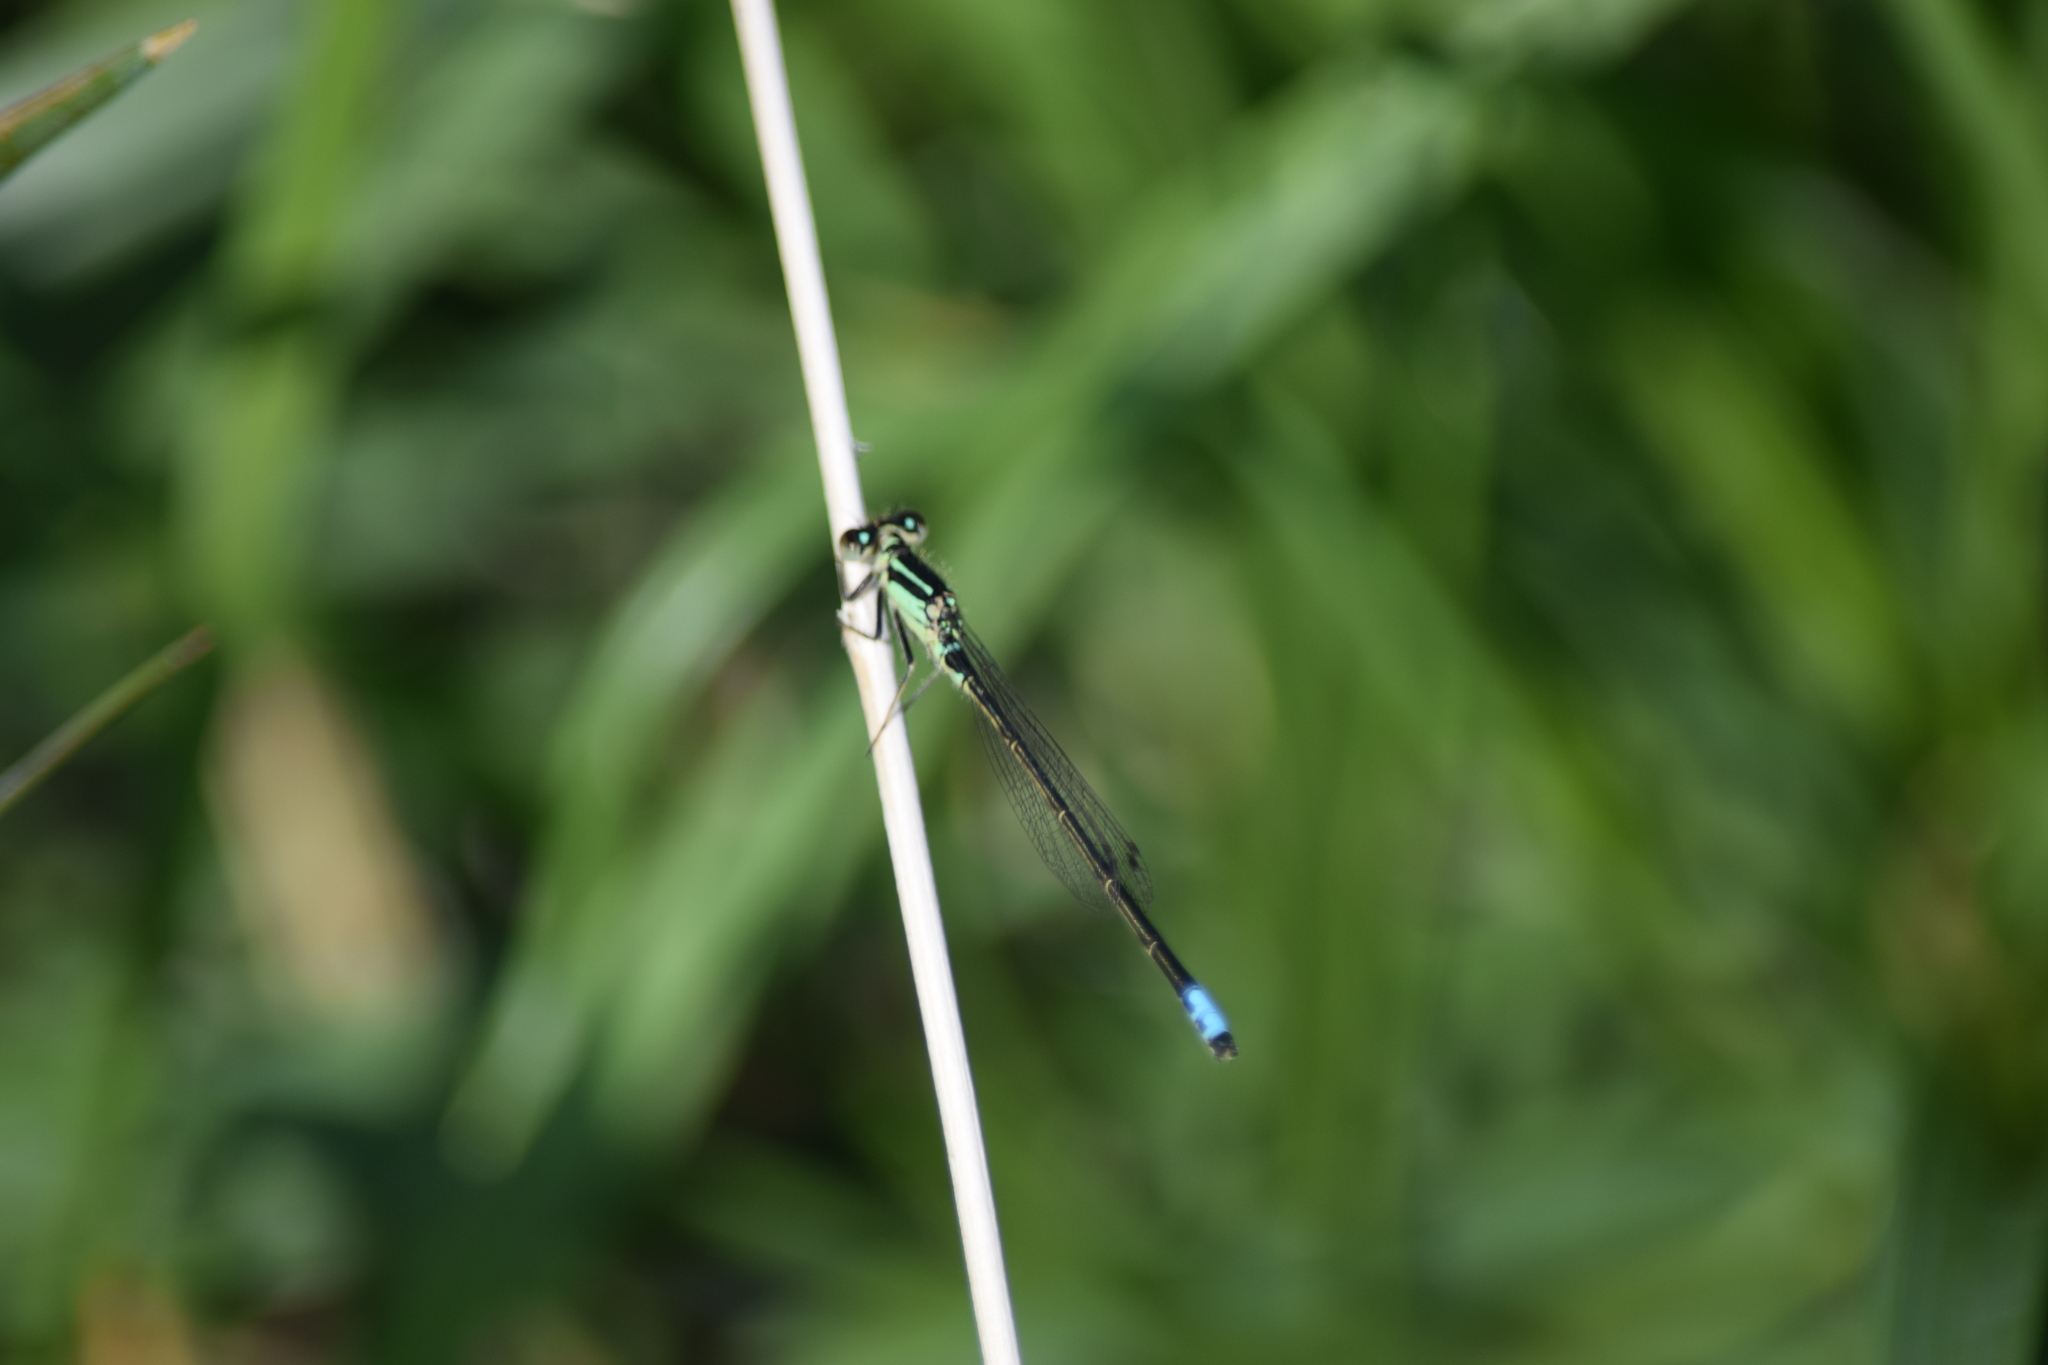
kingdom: Animalia
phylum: Arthropoda
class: Insecta
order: Odonata
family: Coenagrionidae
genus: Ischnura
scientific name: Ischnura verticalis
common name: Eastern forktail
